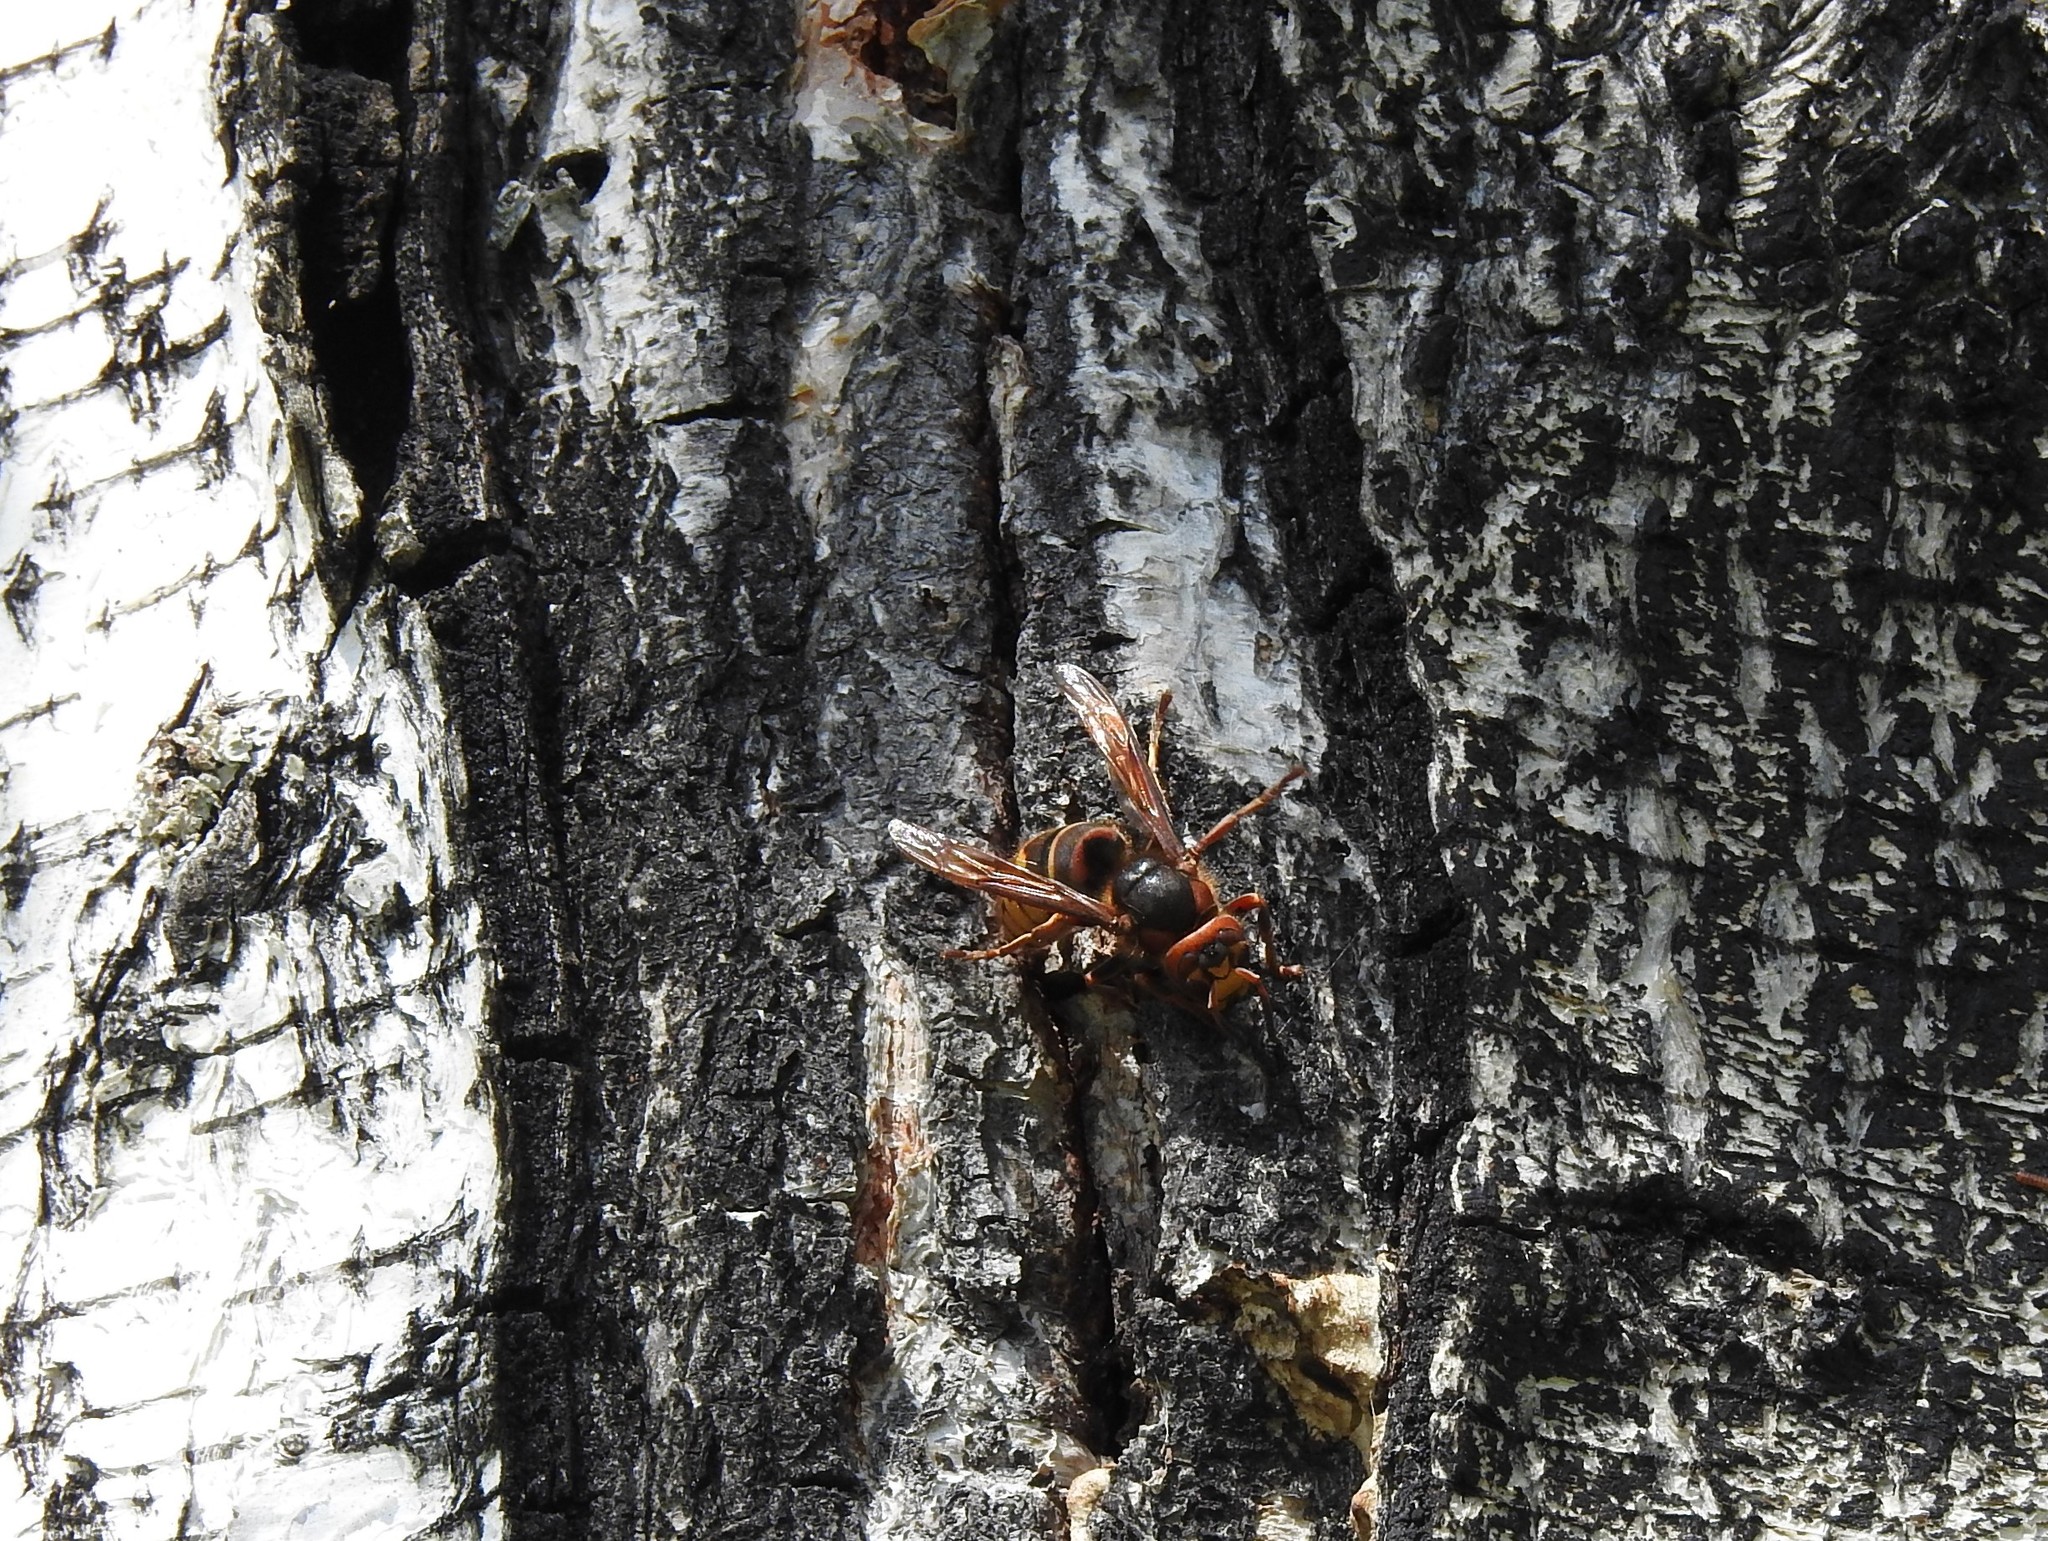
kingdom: Animalia
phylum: Arthropoda
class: Insecta
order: Hymenoptera
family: Vespidae
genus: Vespa
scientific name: Vespa crabro
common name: Hornet
